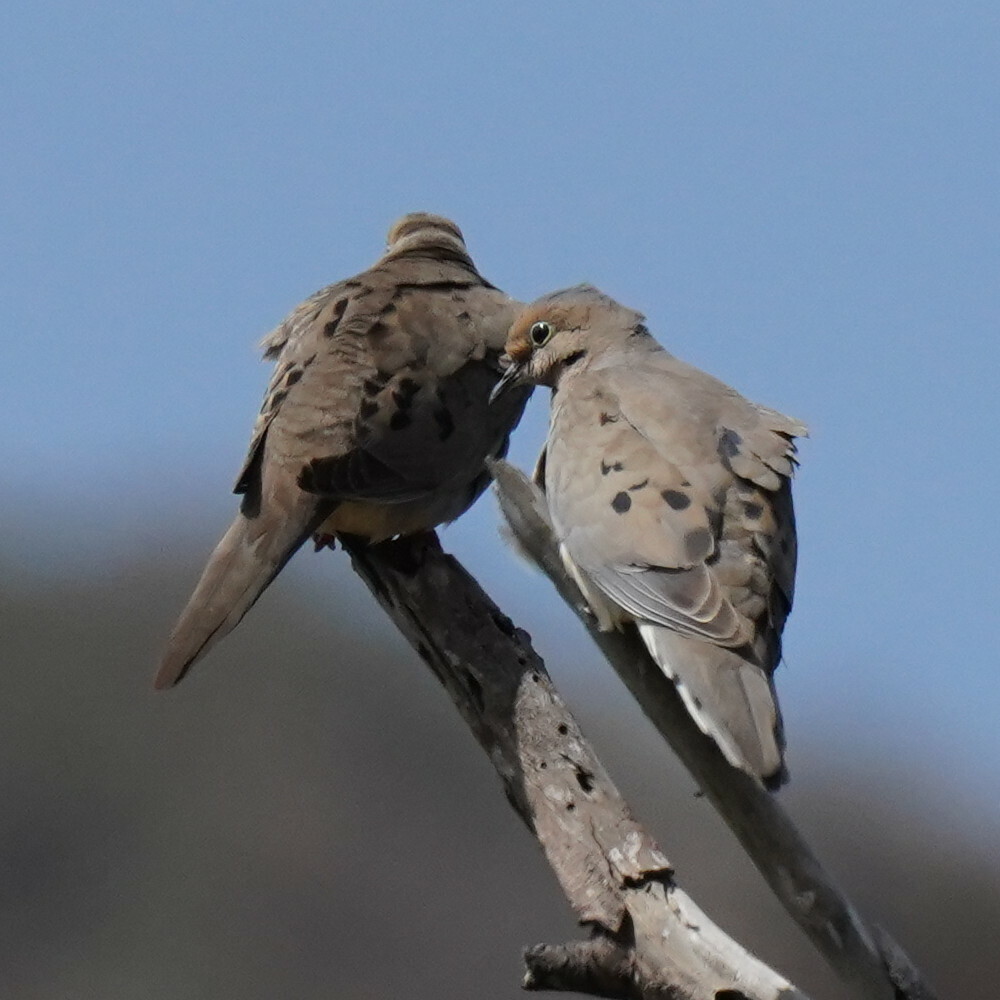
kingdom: Animalia
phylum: Chordata
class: Aves
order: Columbiformes
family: Columbidae
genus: Zenaida
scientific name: Zenaida macroura
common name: Mourning dove
